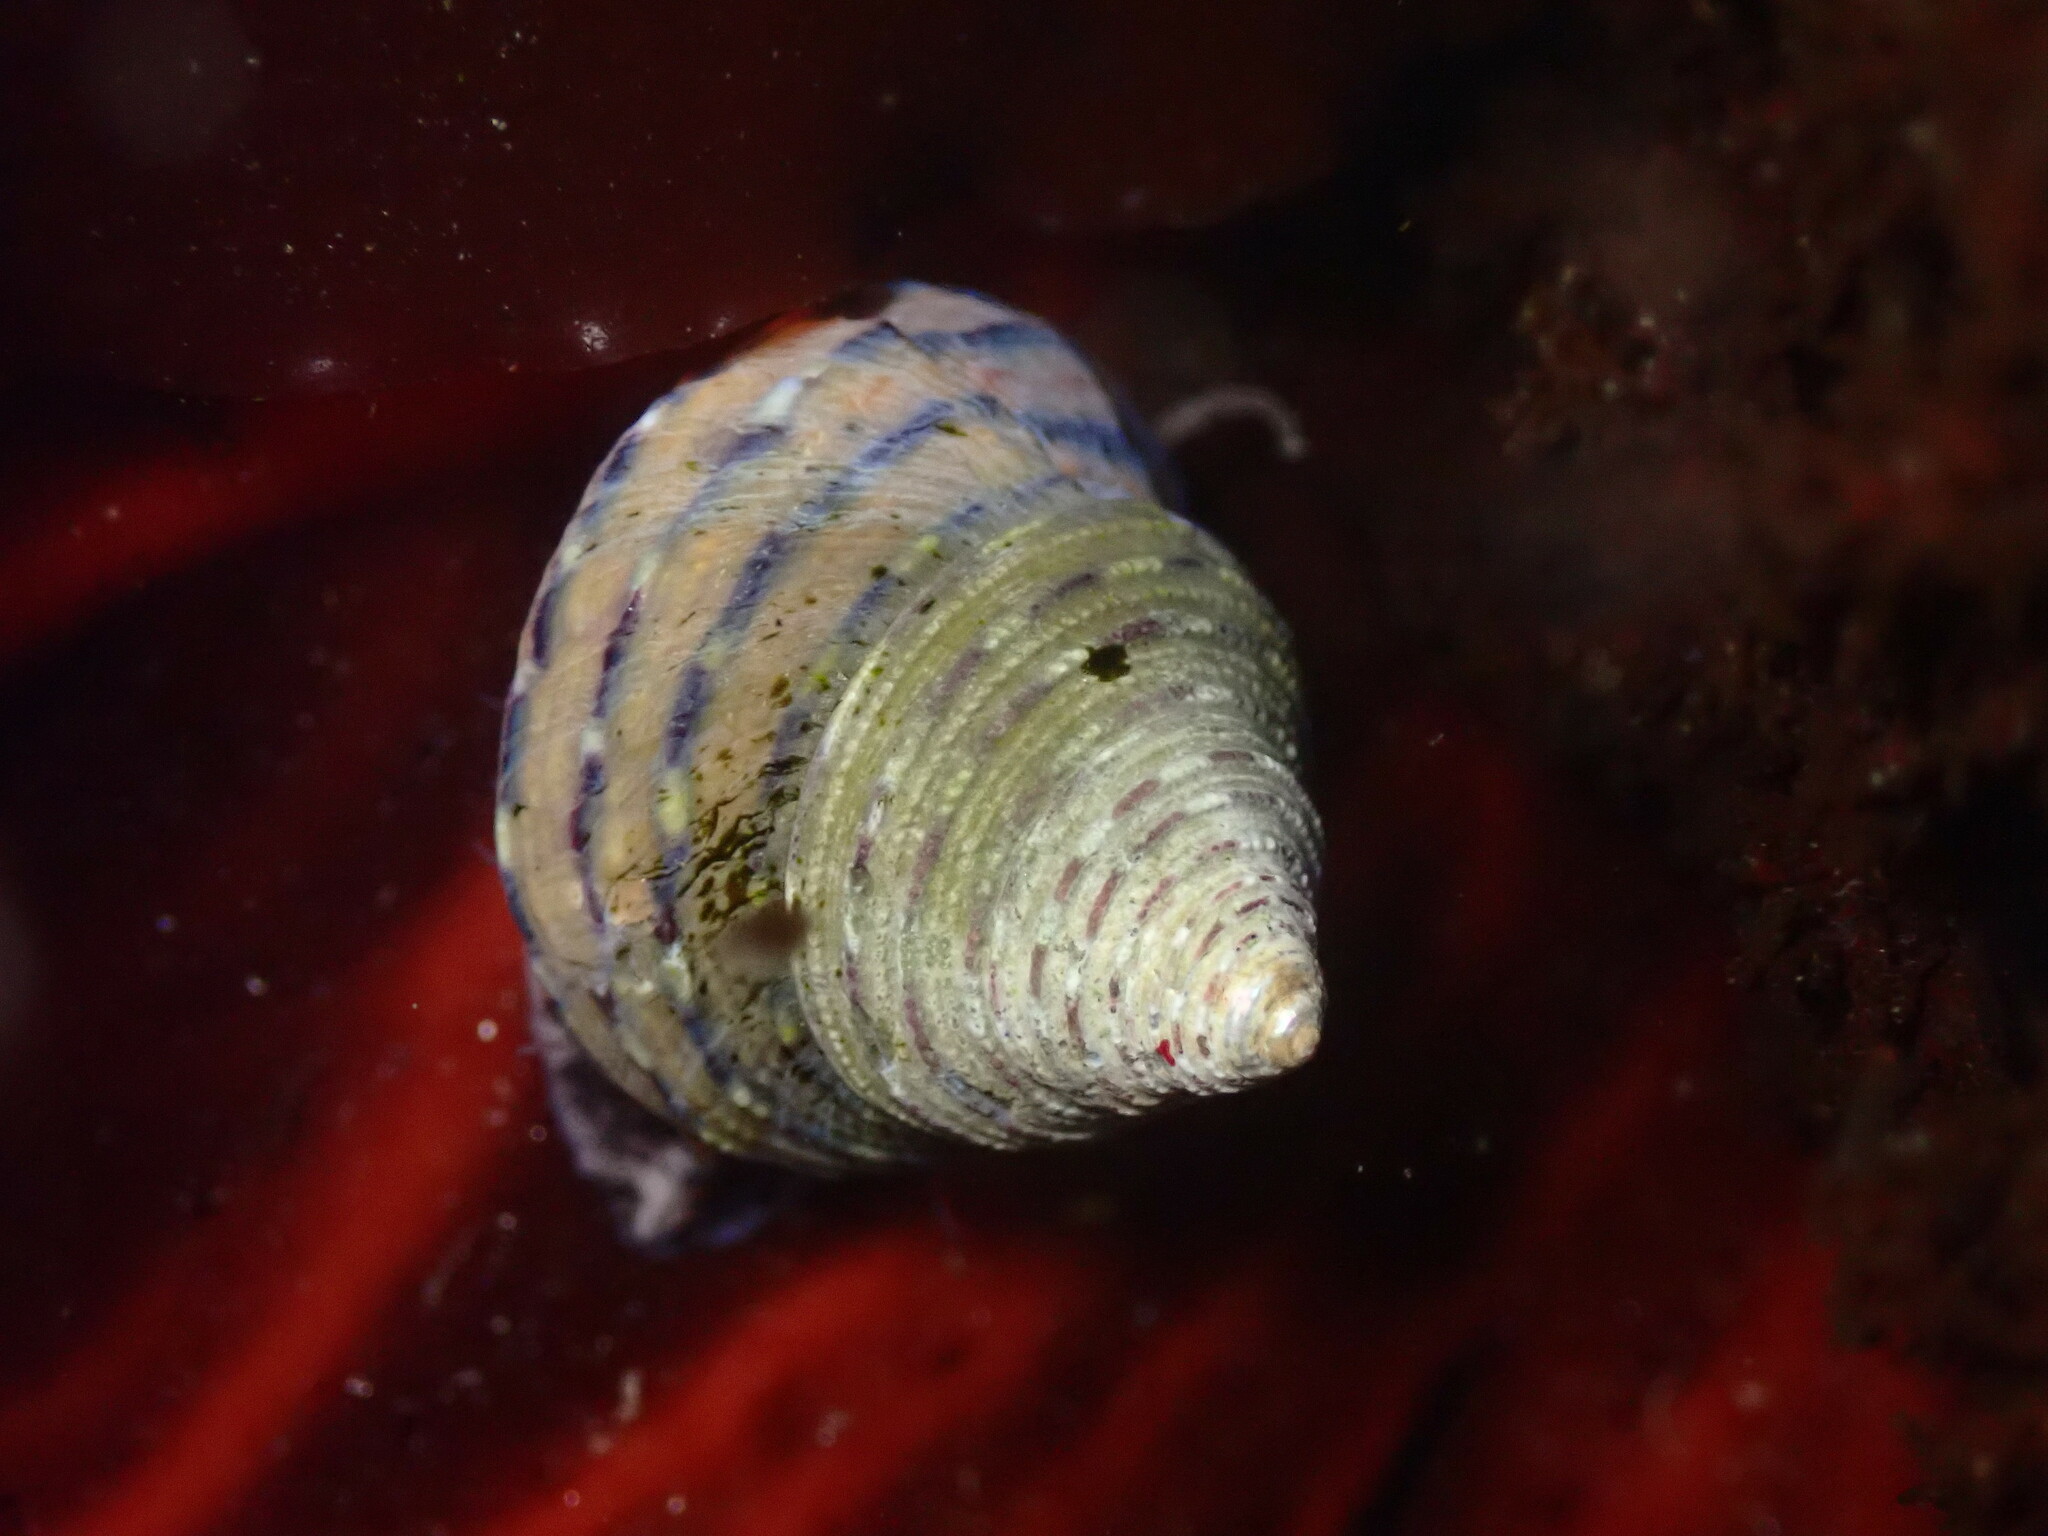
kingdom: Animalia
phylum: Mollusca
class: Gastropoda
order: Trochida
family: Calliostomatidae
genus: Calliostoma
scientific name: Calliostoma tricolor
